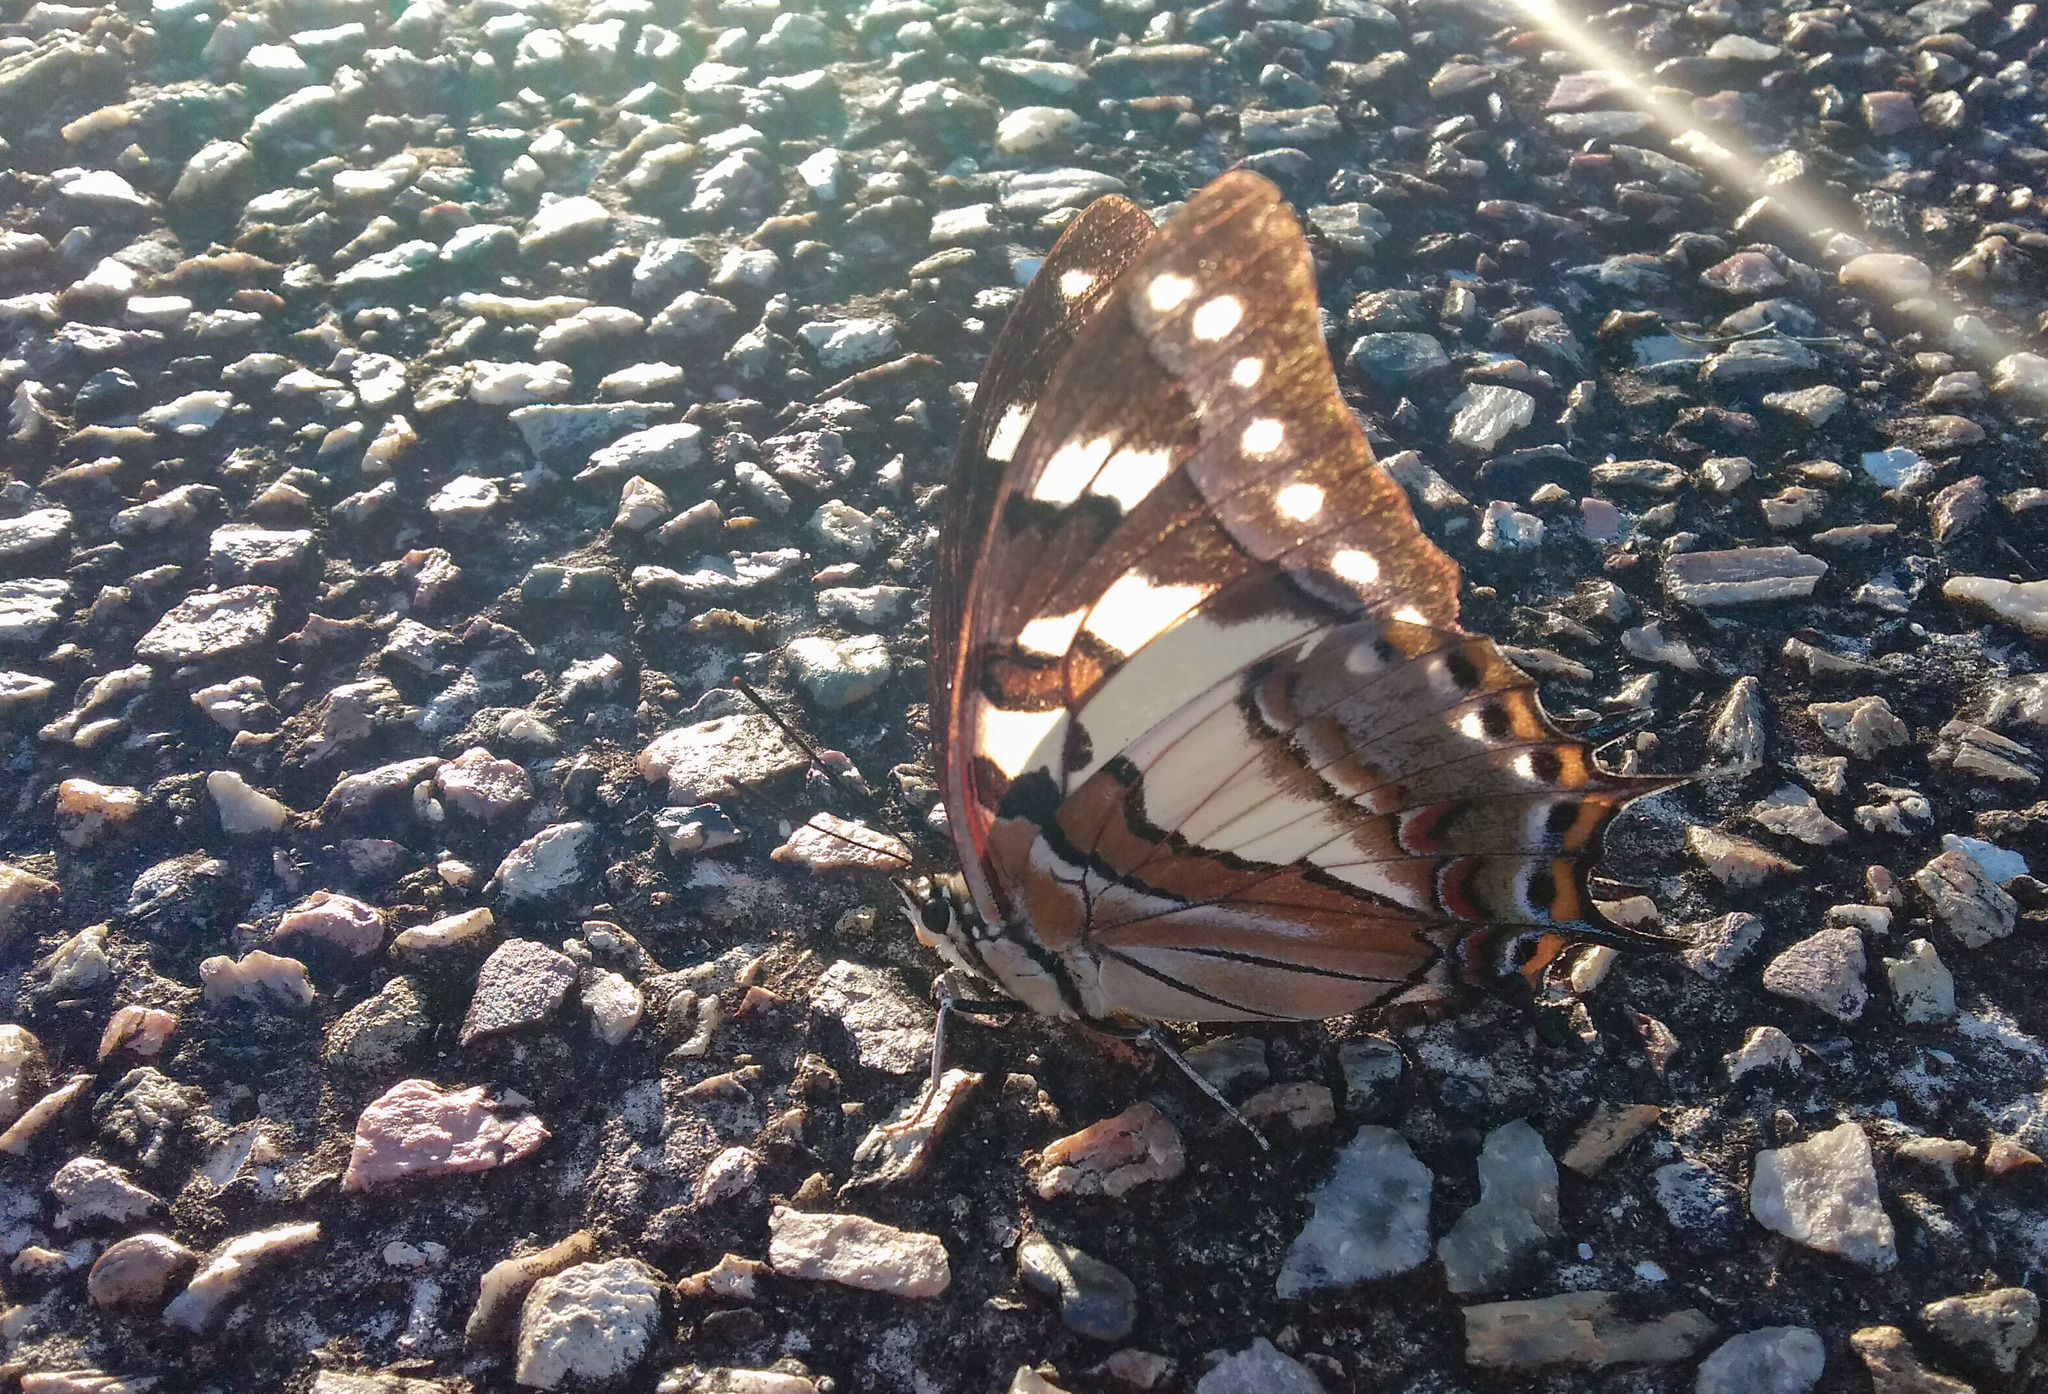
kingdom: Animalia
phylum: Arthropoda
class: Insecta
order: Lepidoptera
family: Nymphalidae
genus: Charaxes
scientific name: Charaxes
